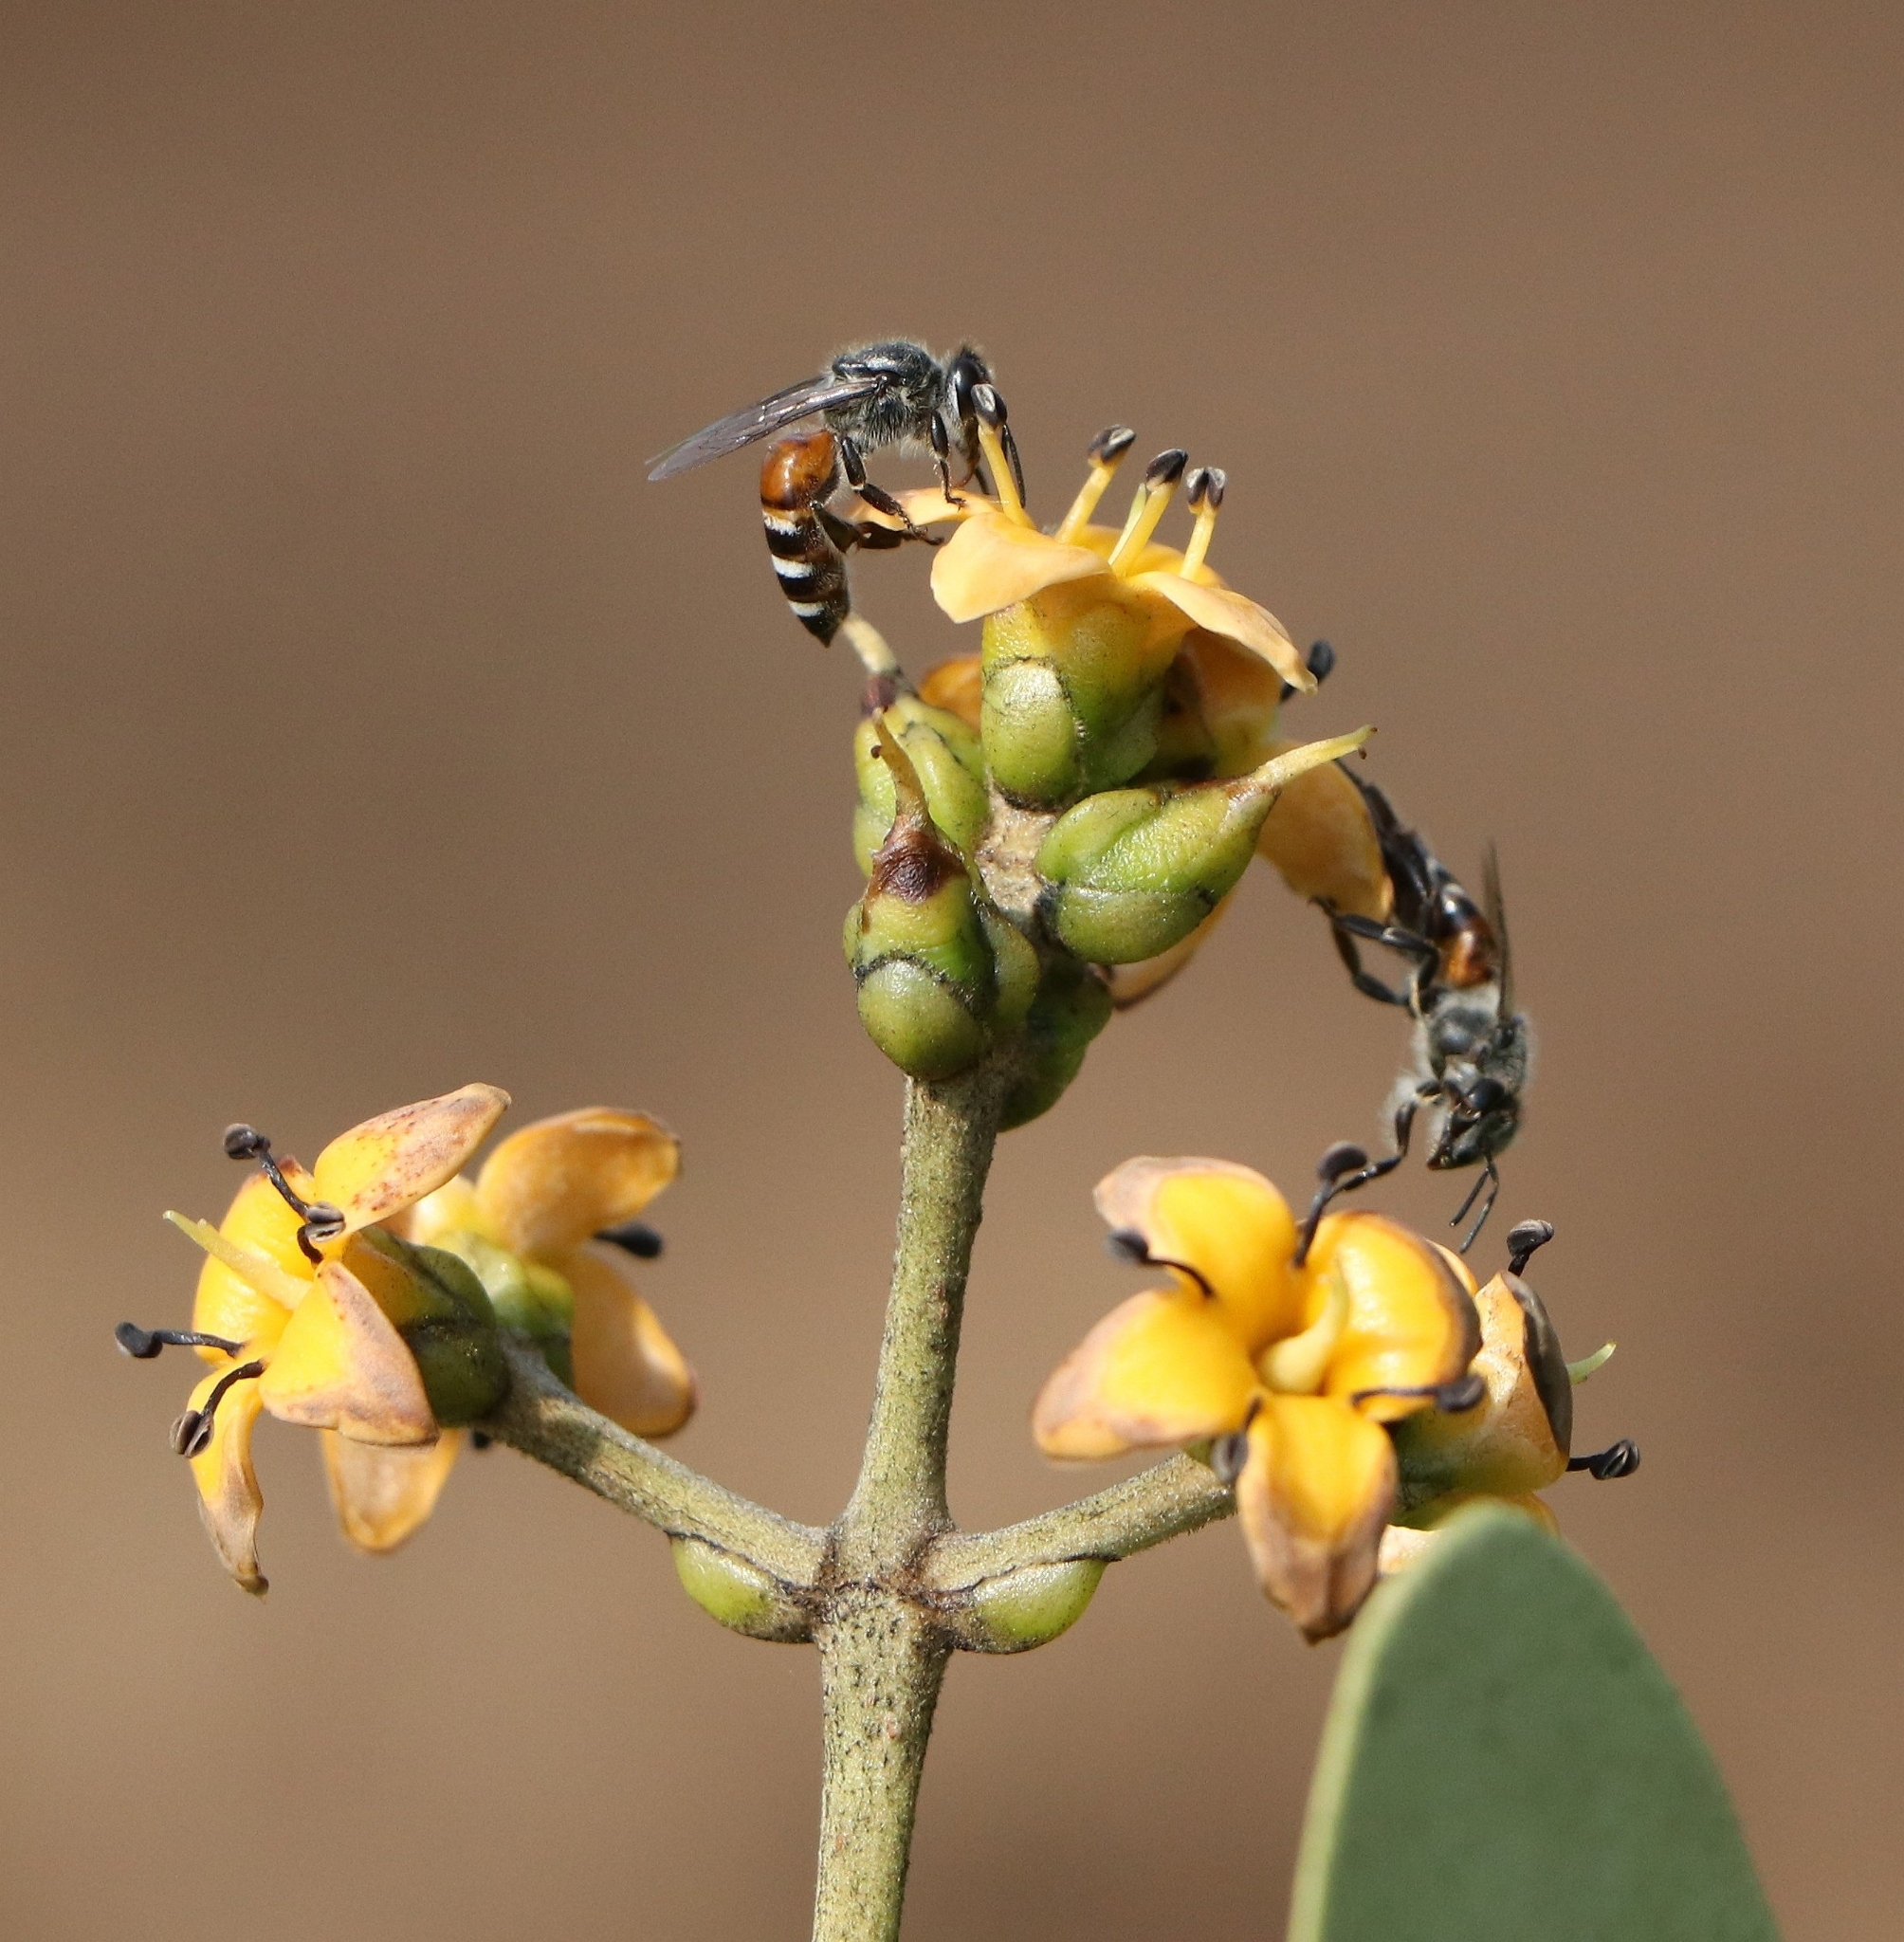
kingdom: Animalia
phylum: Arthropoda
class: Insecta
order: Hymenoptera
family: Apidae
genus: Apis
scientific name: Apis florea
